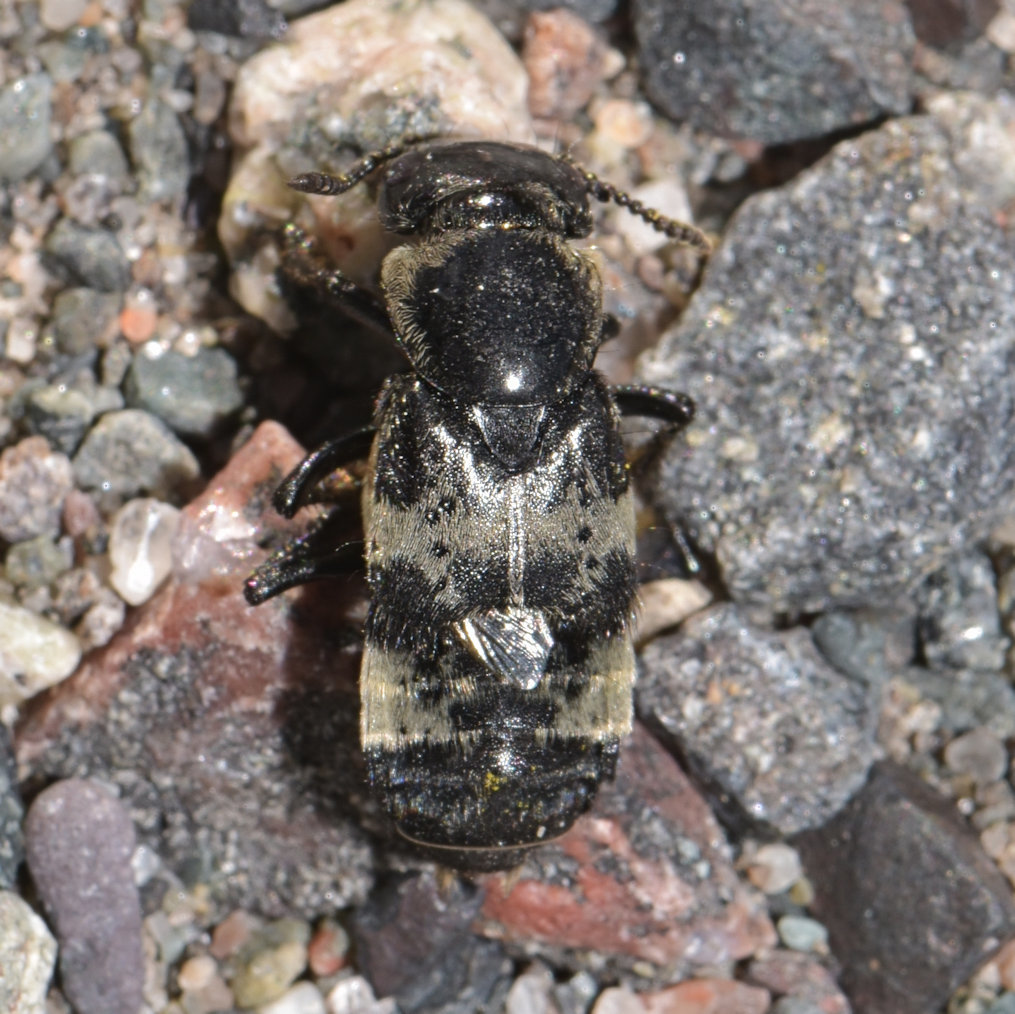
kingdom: Animalia
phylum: Arthropoda
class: Insecta
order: Coleoptera
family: Staphylinidae
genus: Creophilus
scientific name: Creophilus maxillosus
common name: Hairy rove beetle
